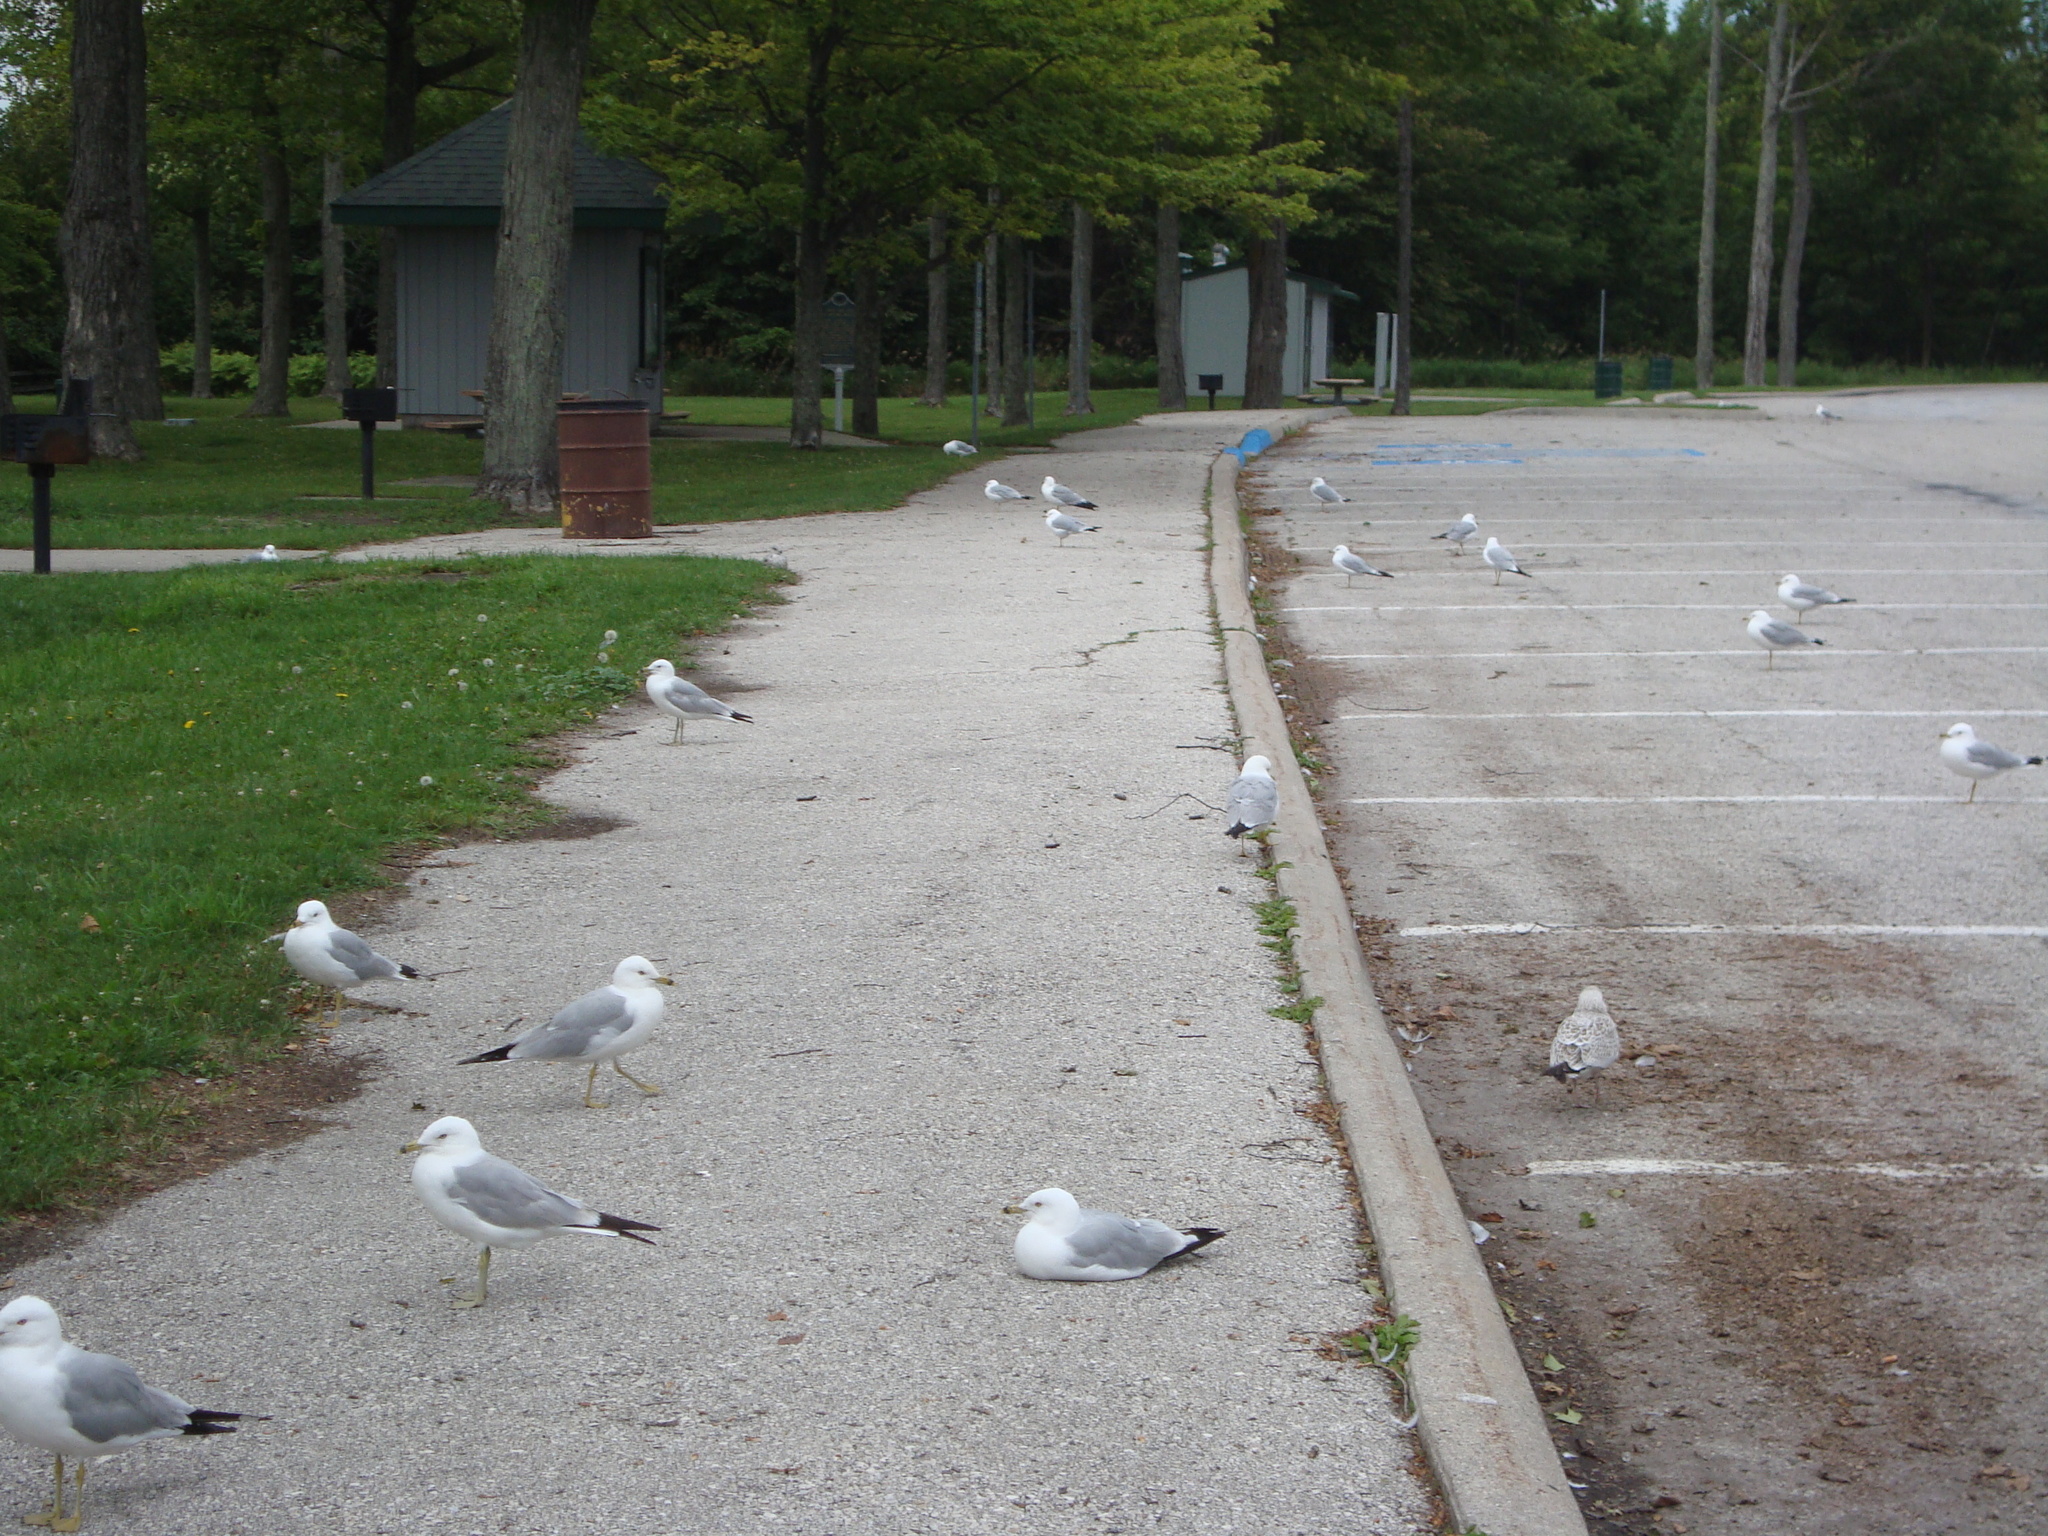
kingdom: Animalia
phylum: Chordata
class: Aves
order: Charadriiformes
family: Laridae
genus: Larus
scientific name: Larus delawarensis
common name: Ring-billed gull
